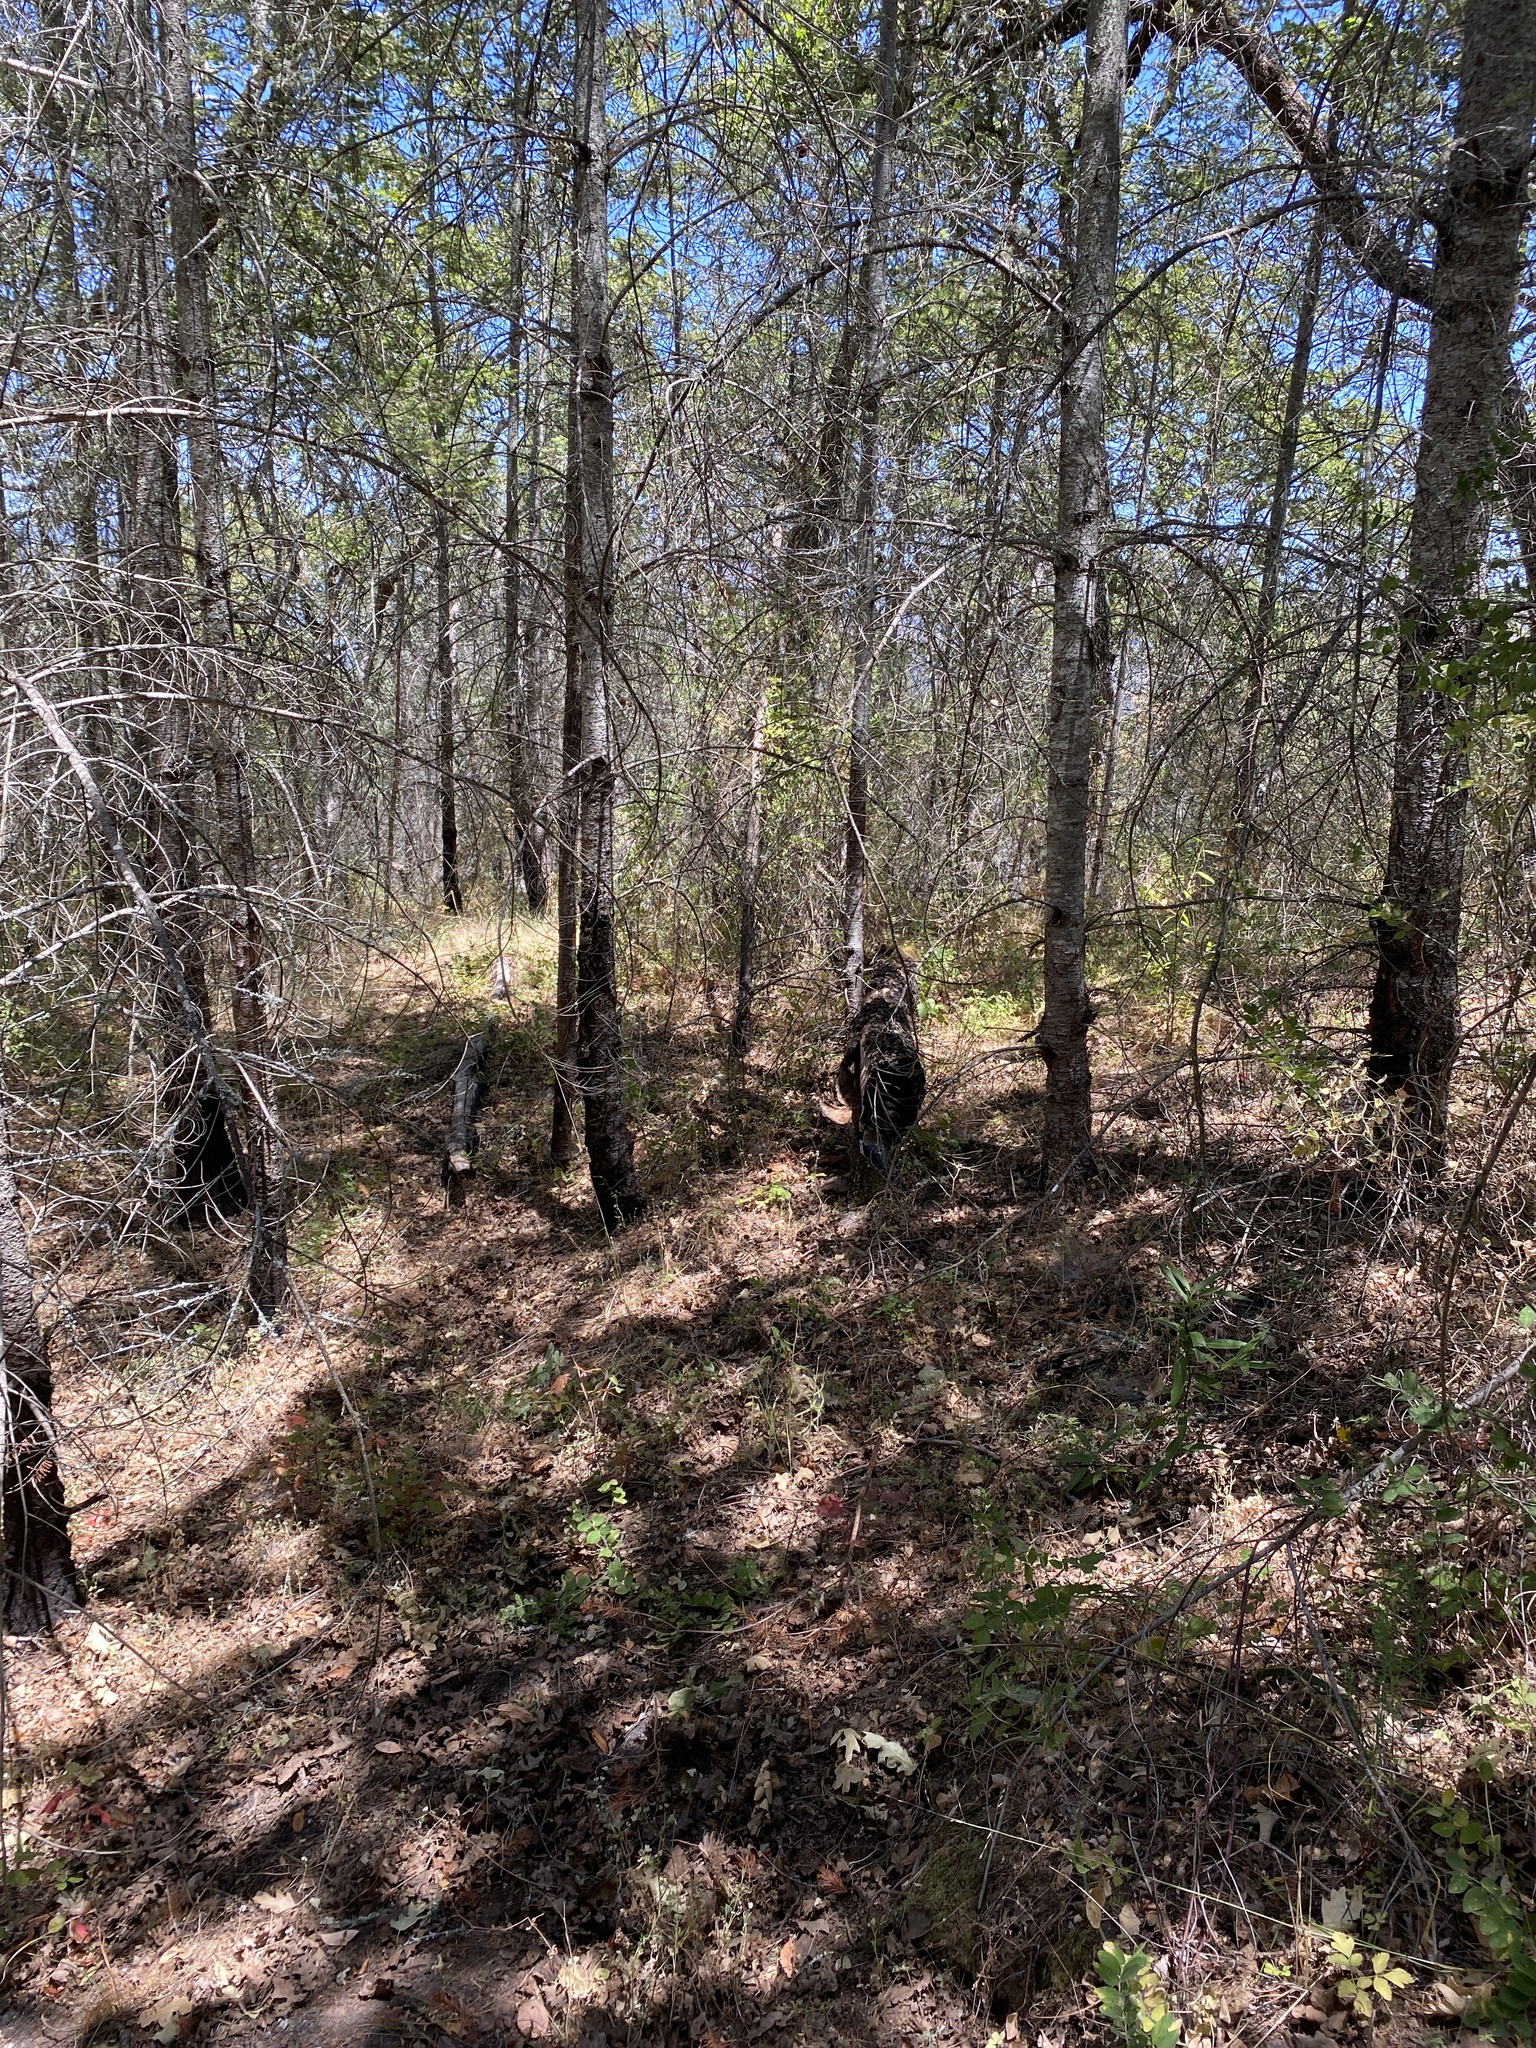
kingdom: Animalia
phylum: Arthropoda
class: Insecta
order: Lepidoptera
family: Pieridae
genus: Zerene
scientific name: Zerene eurydice
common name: California dogface
